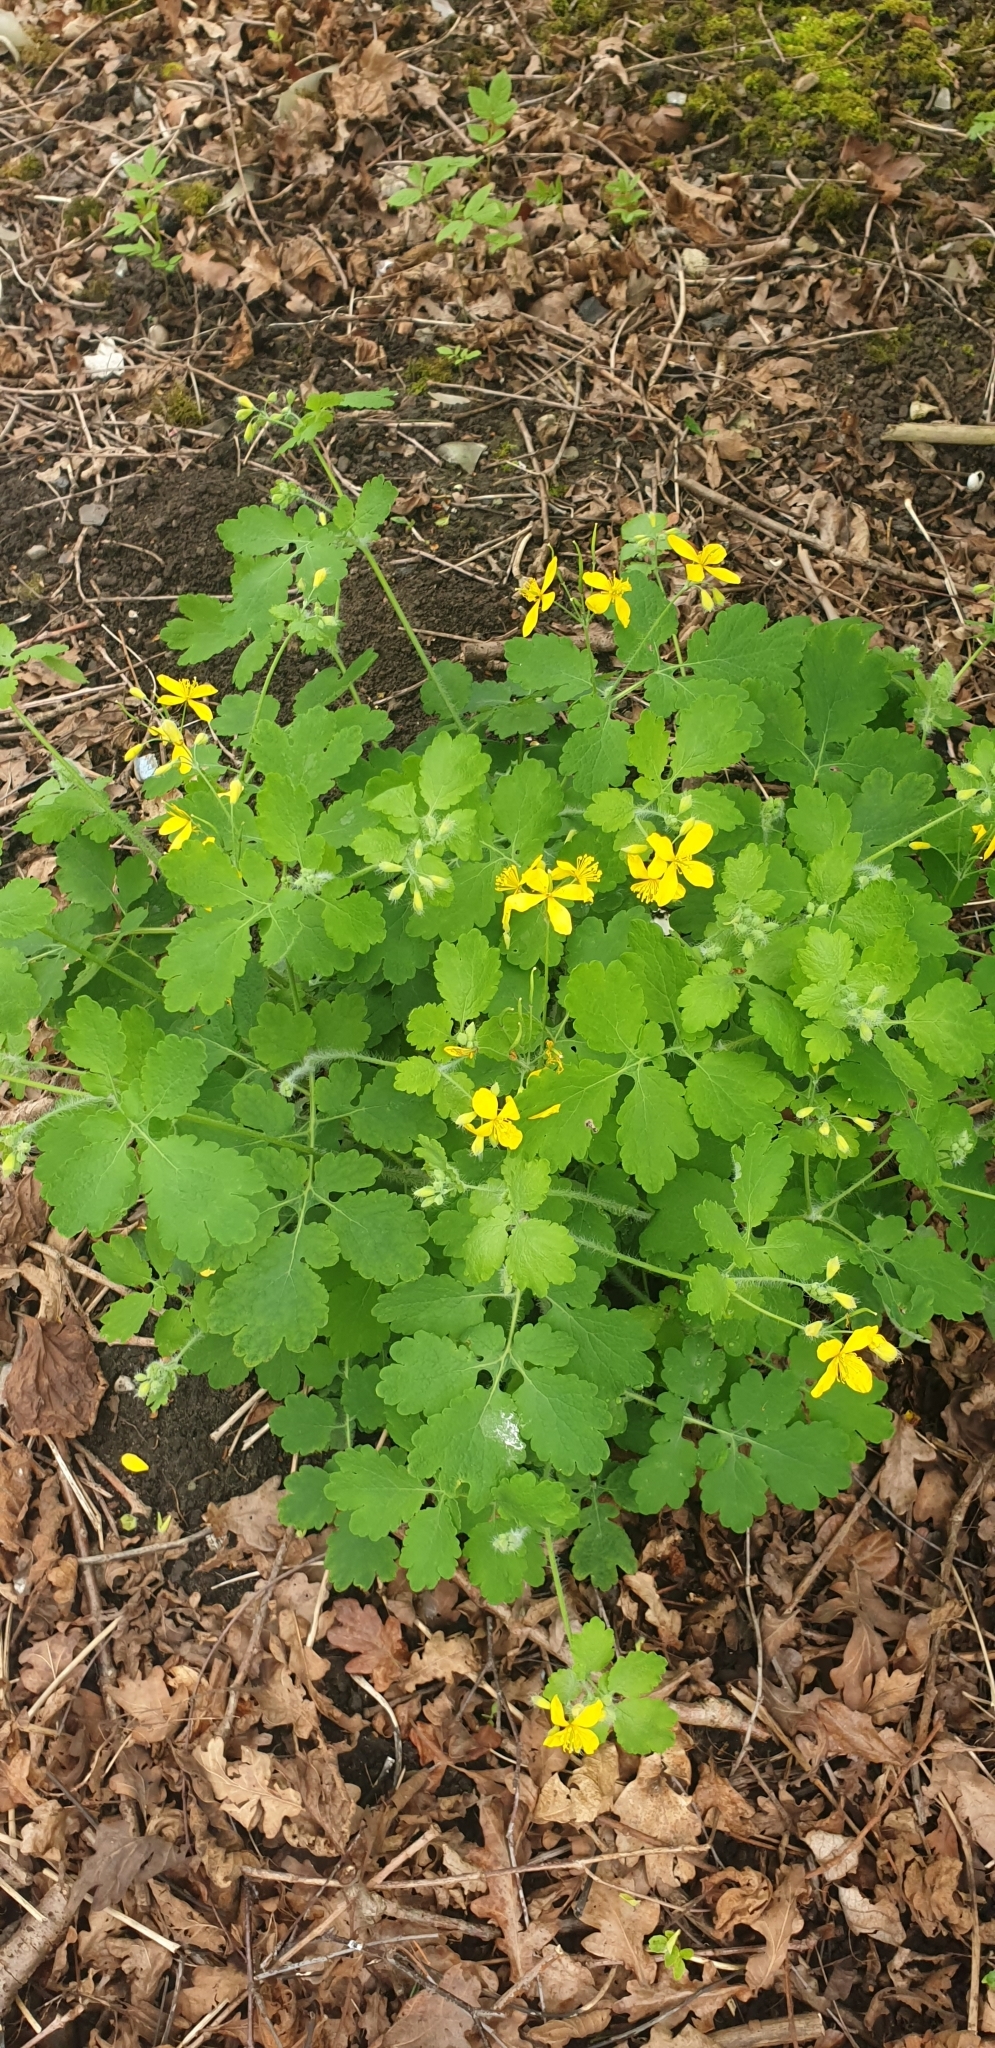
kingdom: Plantae
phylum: Tracheophyta
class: Magnoliopsida
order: Ranunculales
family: Papaveraceae
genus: Chelidonium
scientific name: Chelidonium majus
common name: Greater celandine
